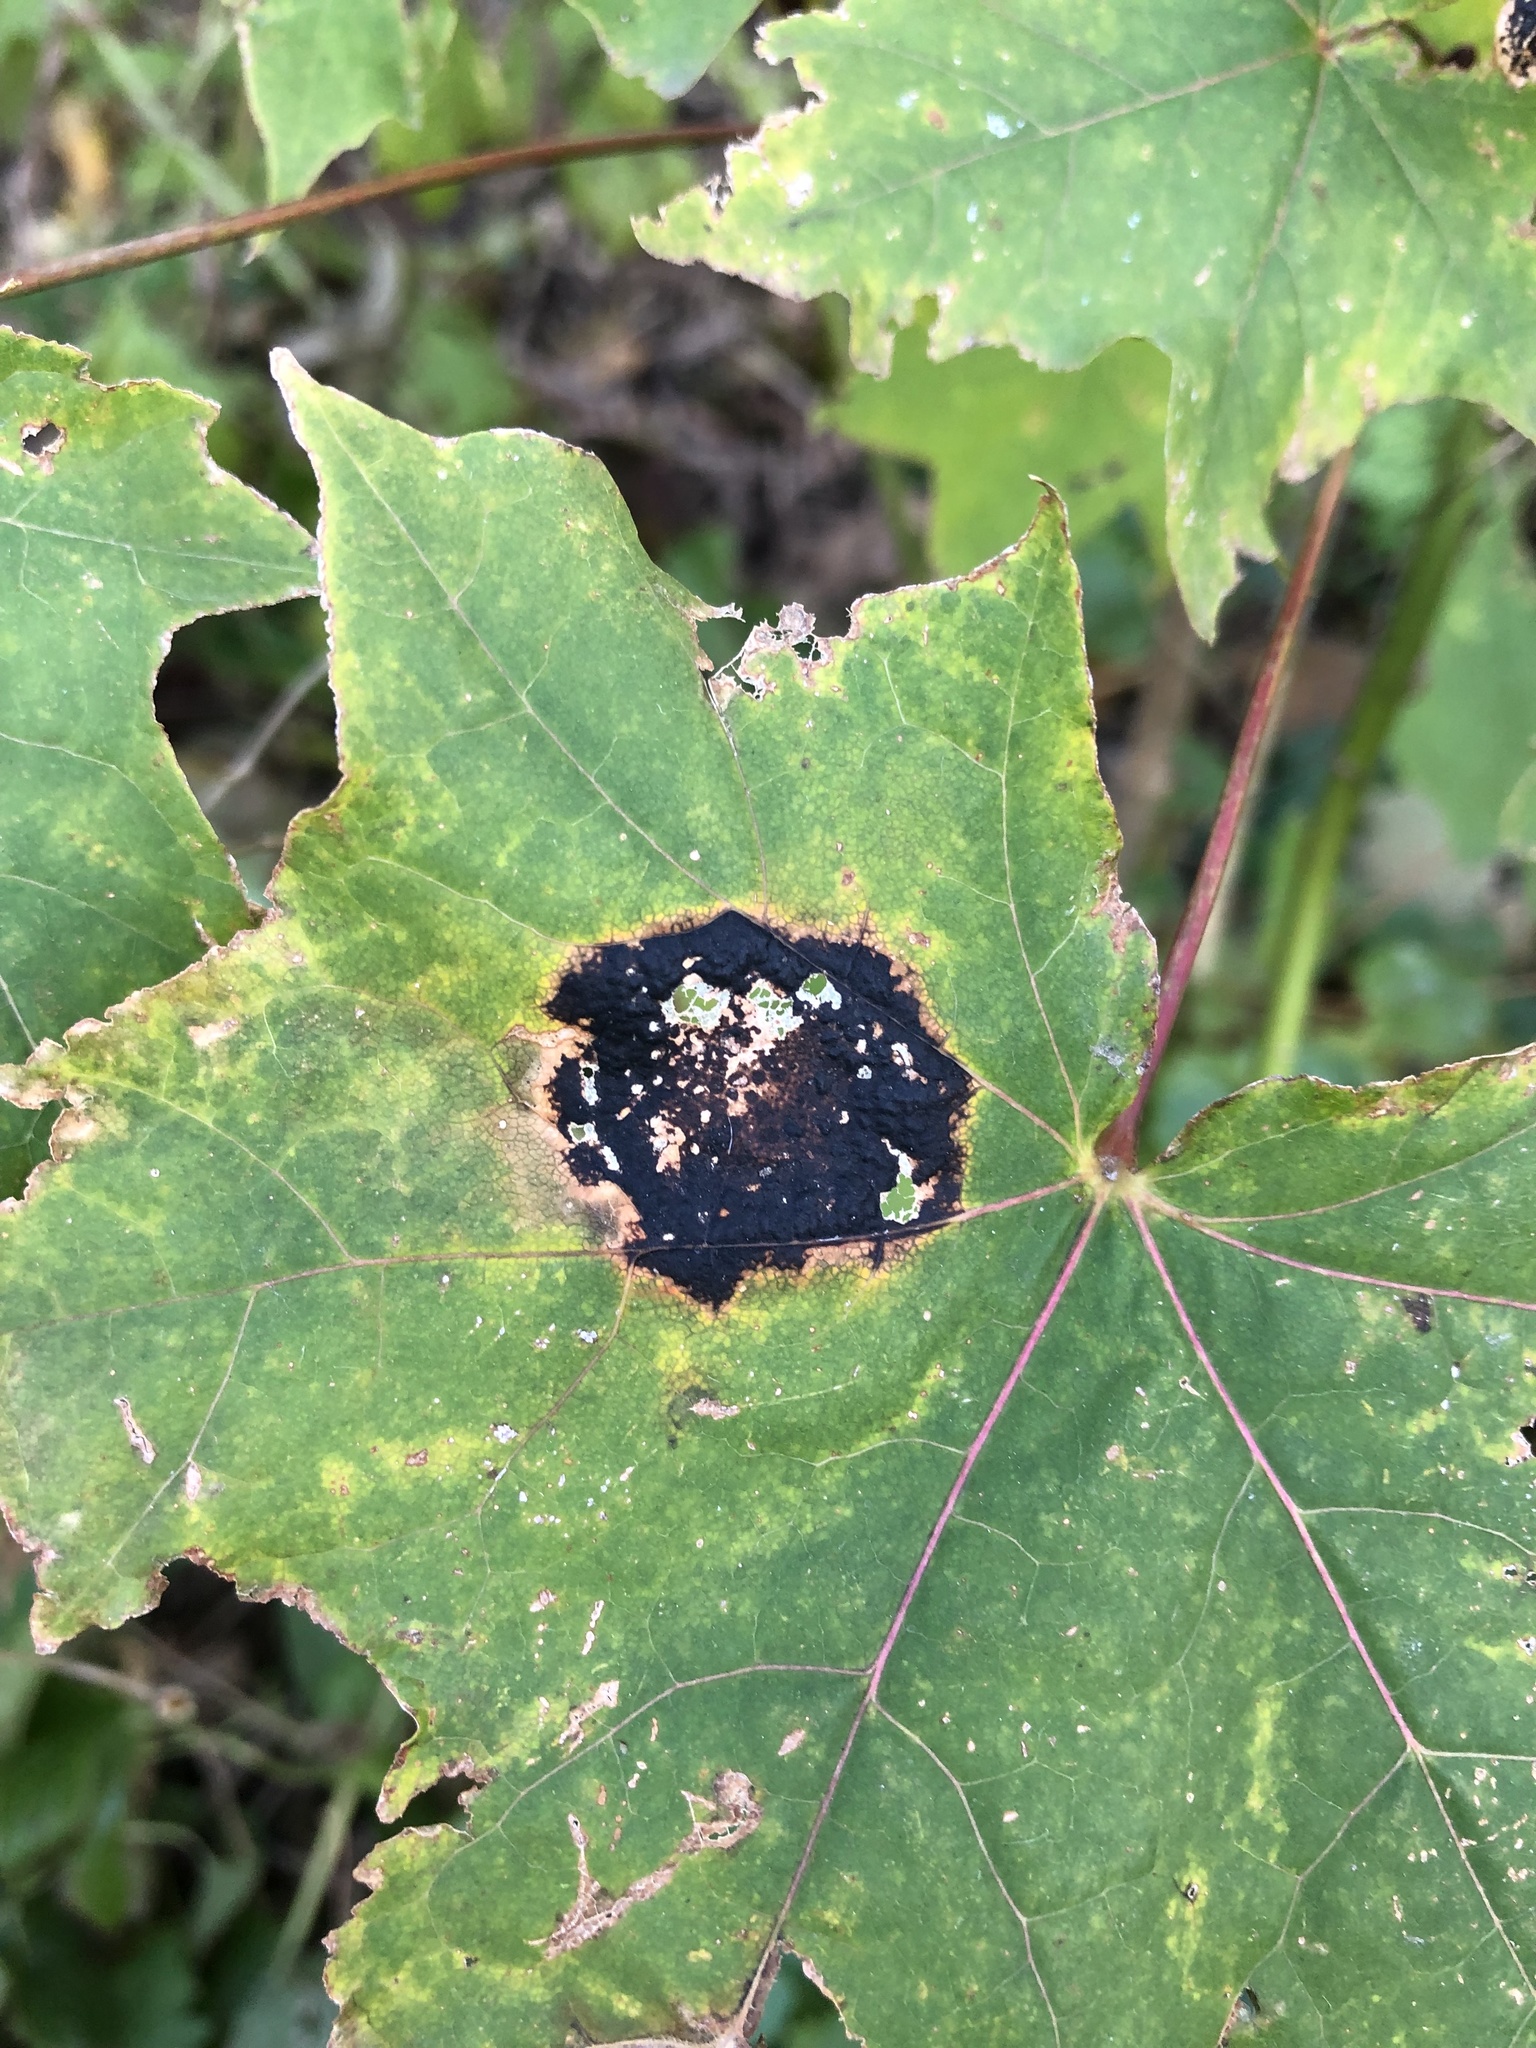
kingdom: Fungi
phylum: Ascomycota
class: Leotiomycetes
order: Rhytismatales
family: Rhytismataceae
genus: Rhytisma
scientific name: Rhytisma acerinum
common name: European tar spot
